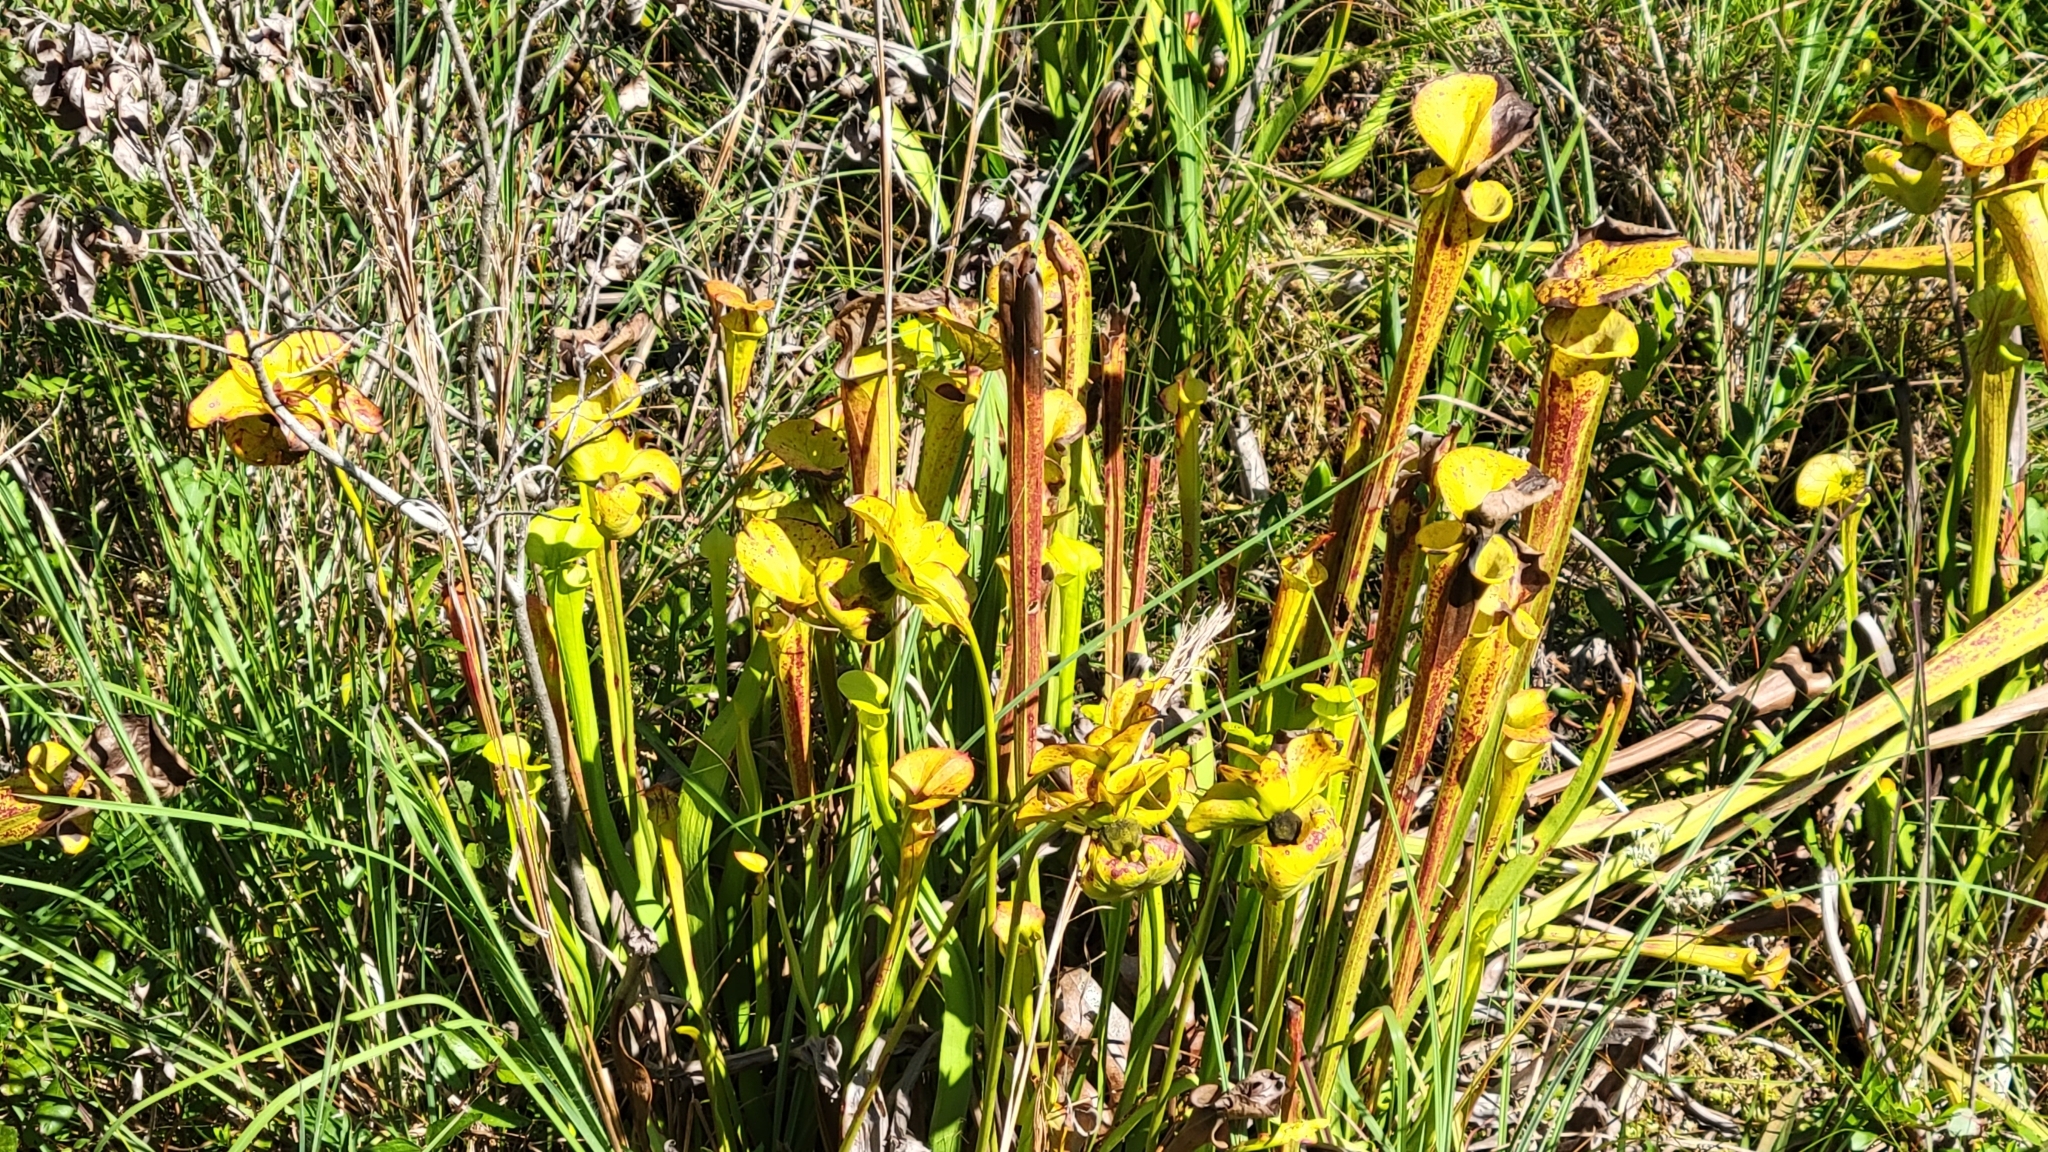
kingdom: Plantae
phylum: Tracheophyta
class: Magnoliopsida
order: Ericales
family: Sarraceniaceae
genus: Sarracenia
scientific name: Sarracenia flava
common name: Trumpets
